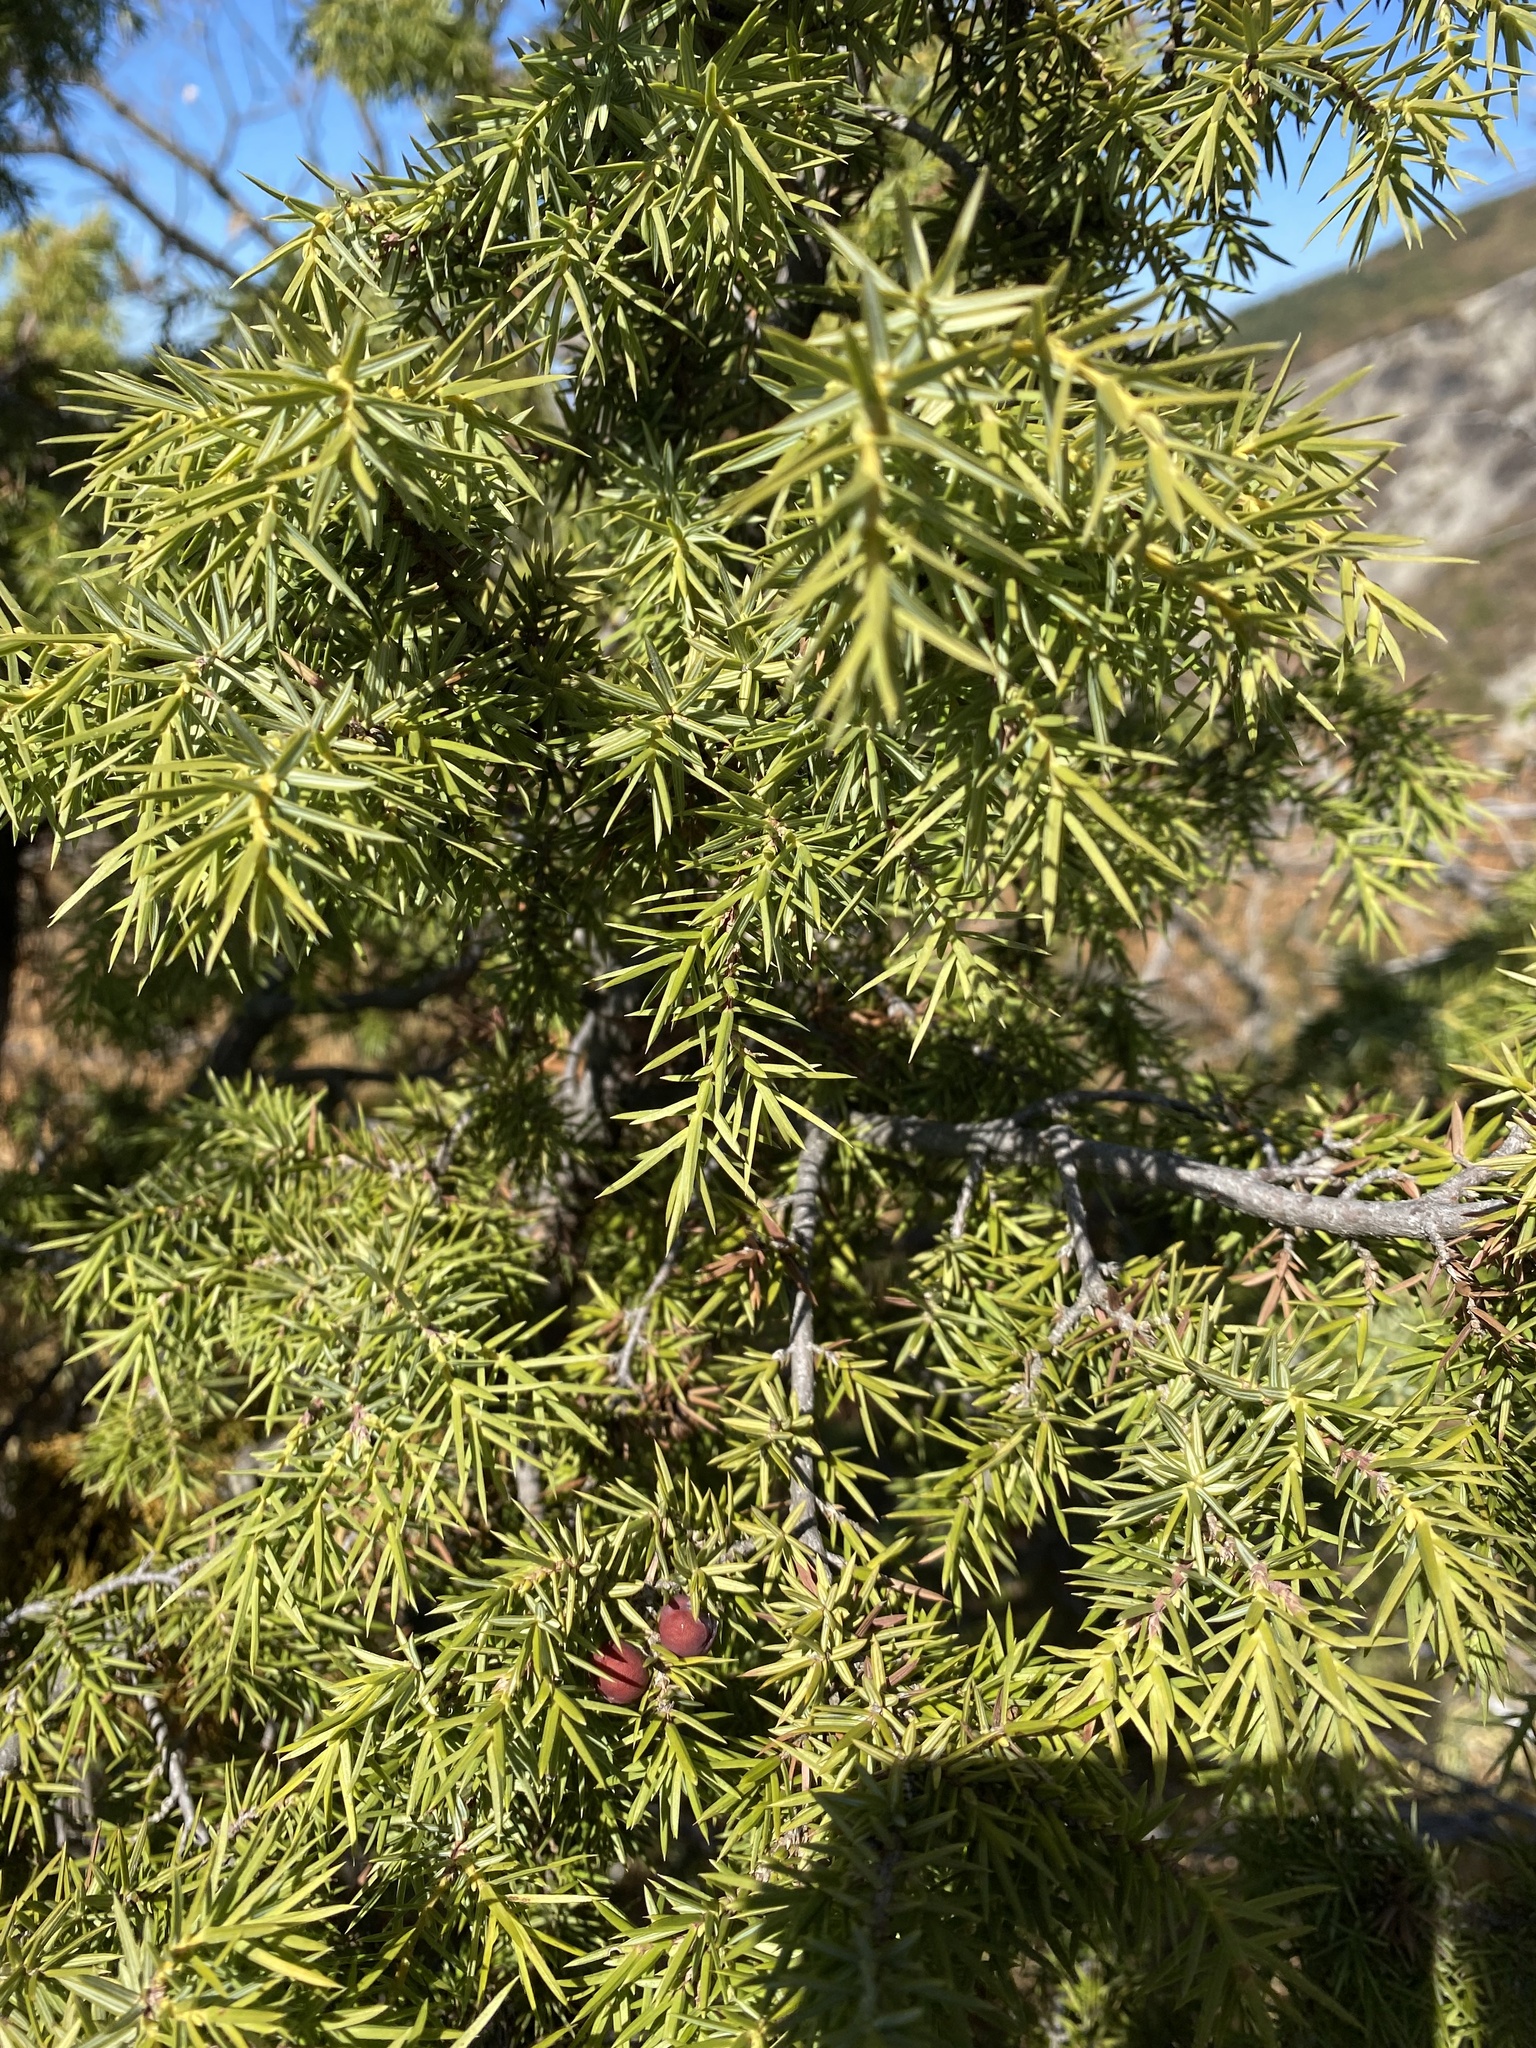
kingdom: Plantae
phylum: Tracheophyta
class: Pinopsida
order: Pinales
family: Cupressaceae
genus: Juniperus
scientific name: Juniperus oxycedrus
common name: Prickly juniper
